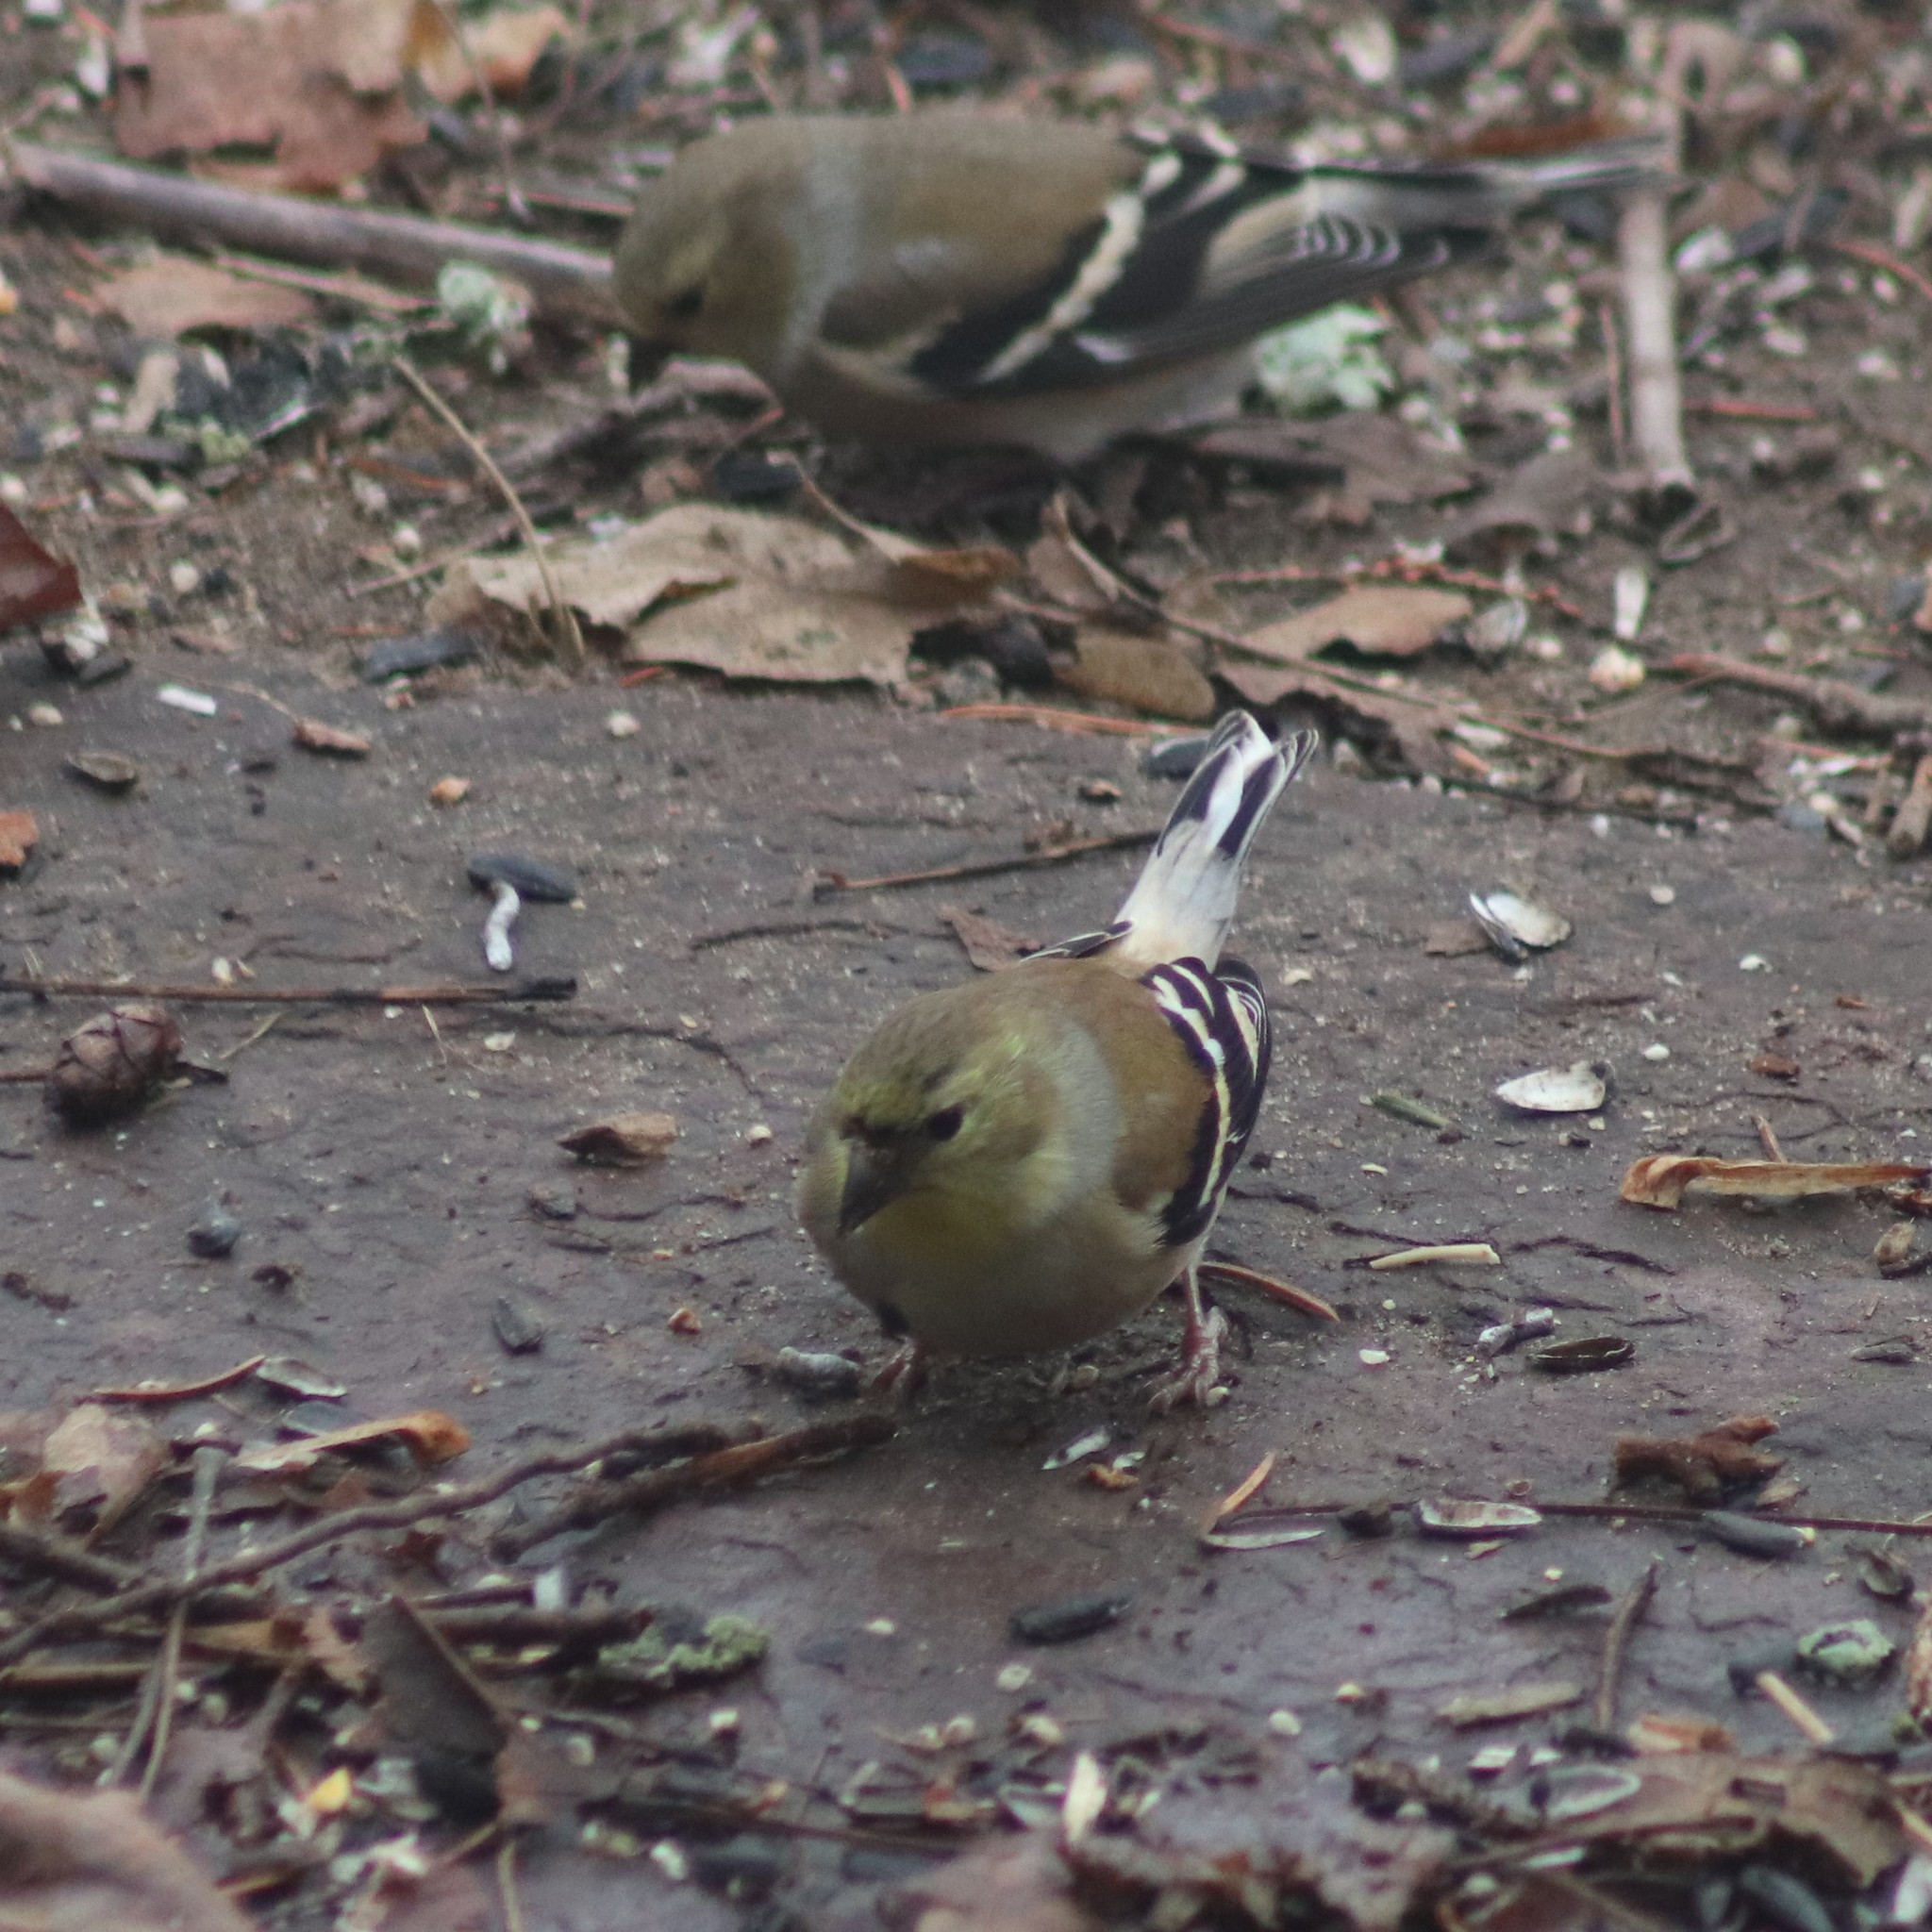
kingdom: Animalia
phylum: Chordata
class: Aves
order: Passeriformes
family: Fringillidae
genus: Spinus
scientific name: Spinus tristis
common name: American goldfinch
